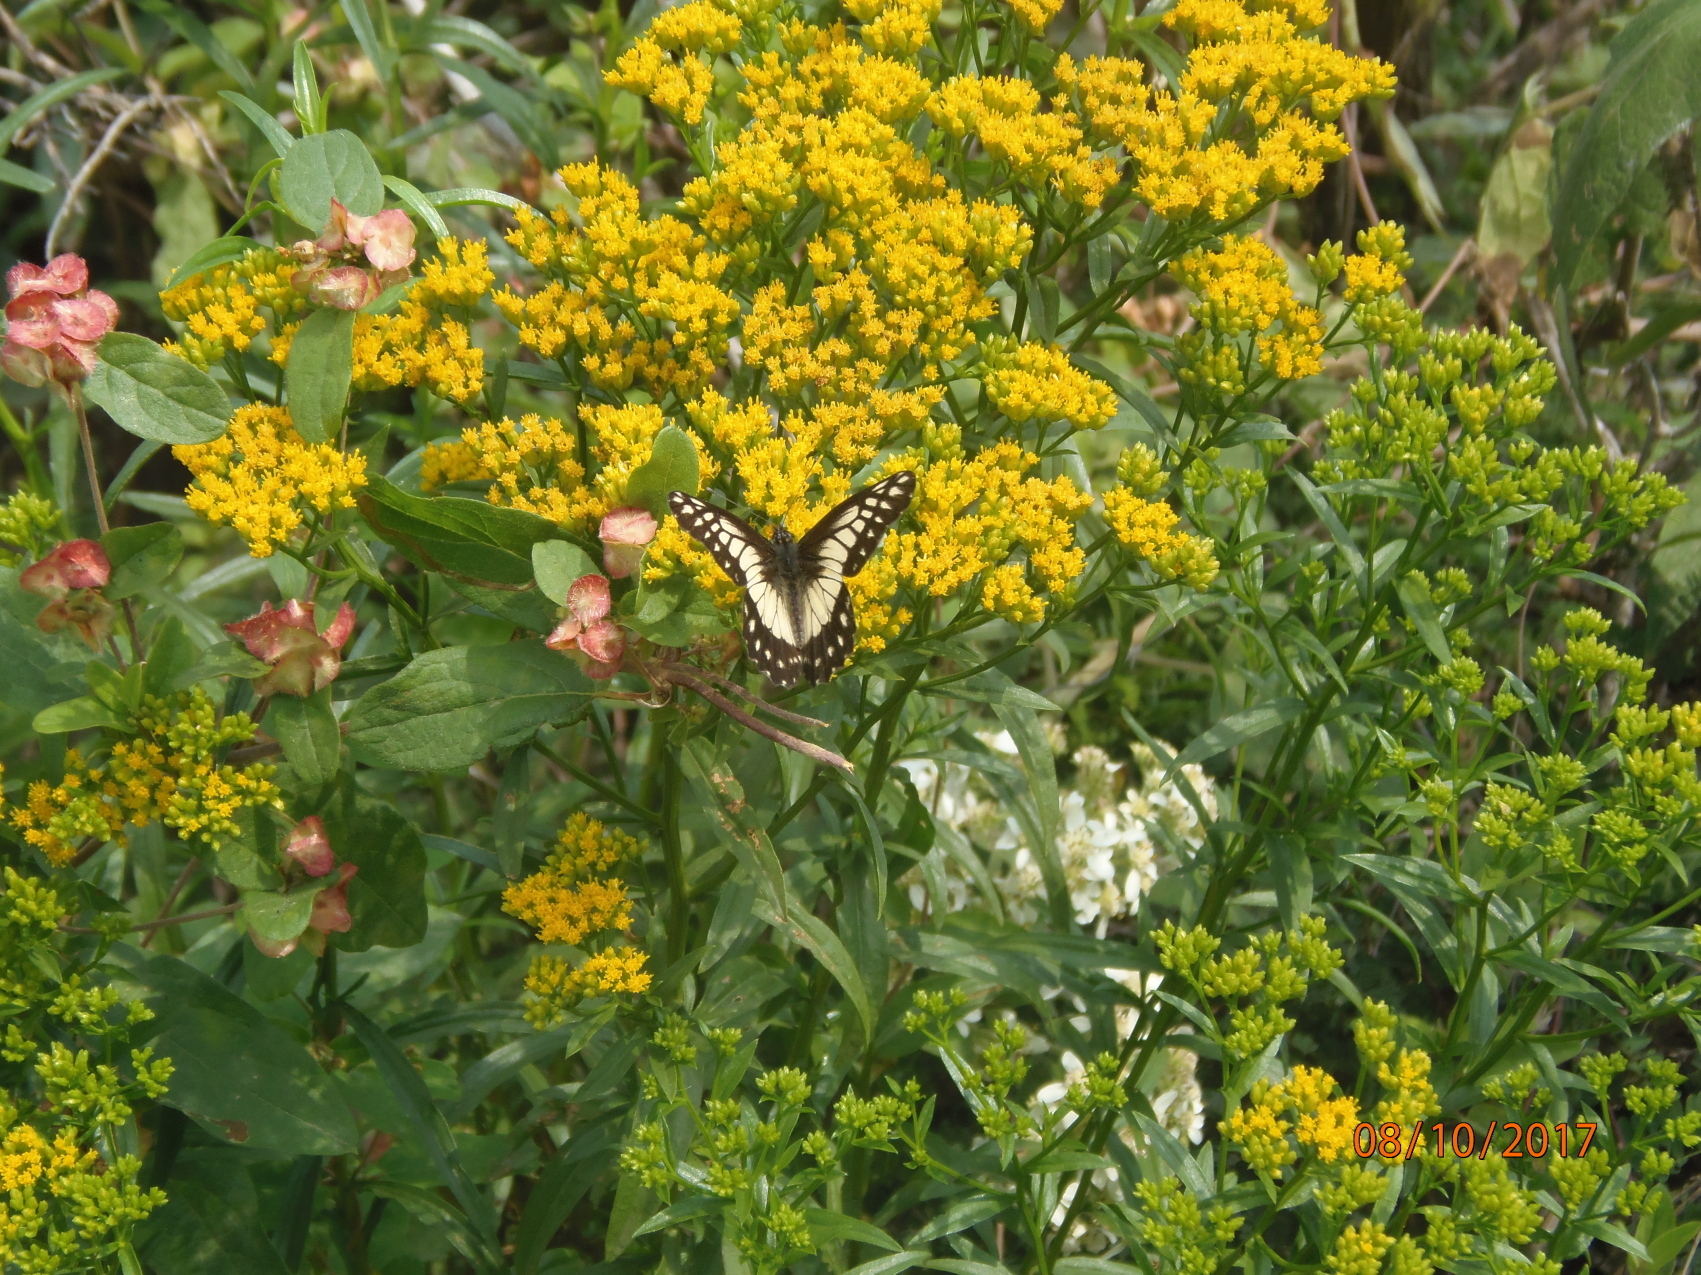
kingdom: Animalia
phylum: Arthropoda
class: Insecta
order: Lepidoptera
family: Pieridae
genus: Archonias
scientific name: Archonias nimbice
